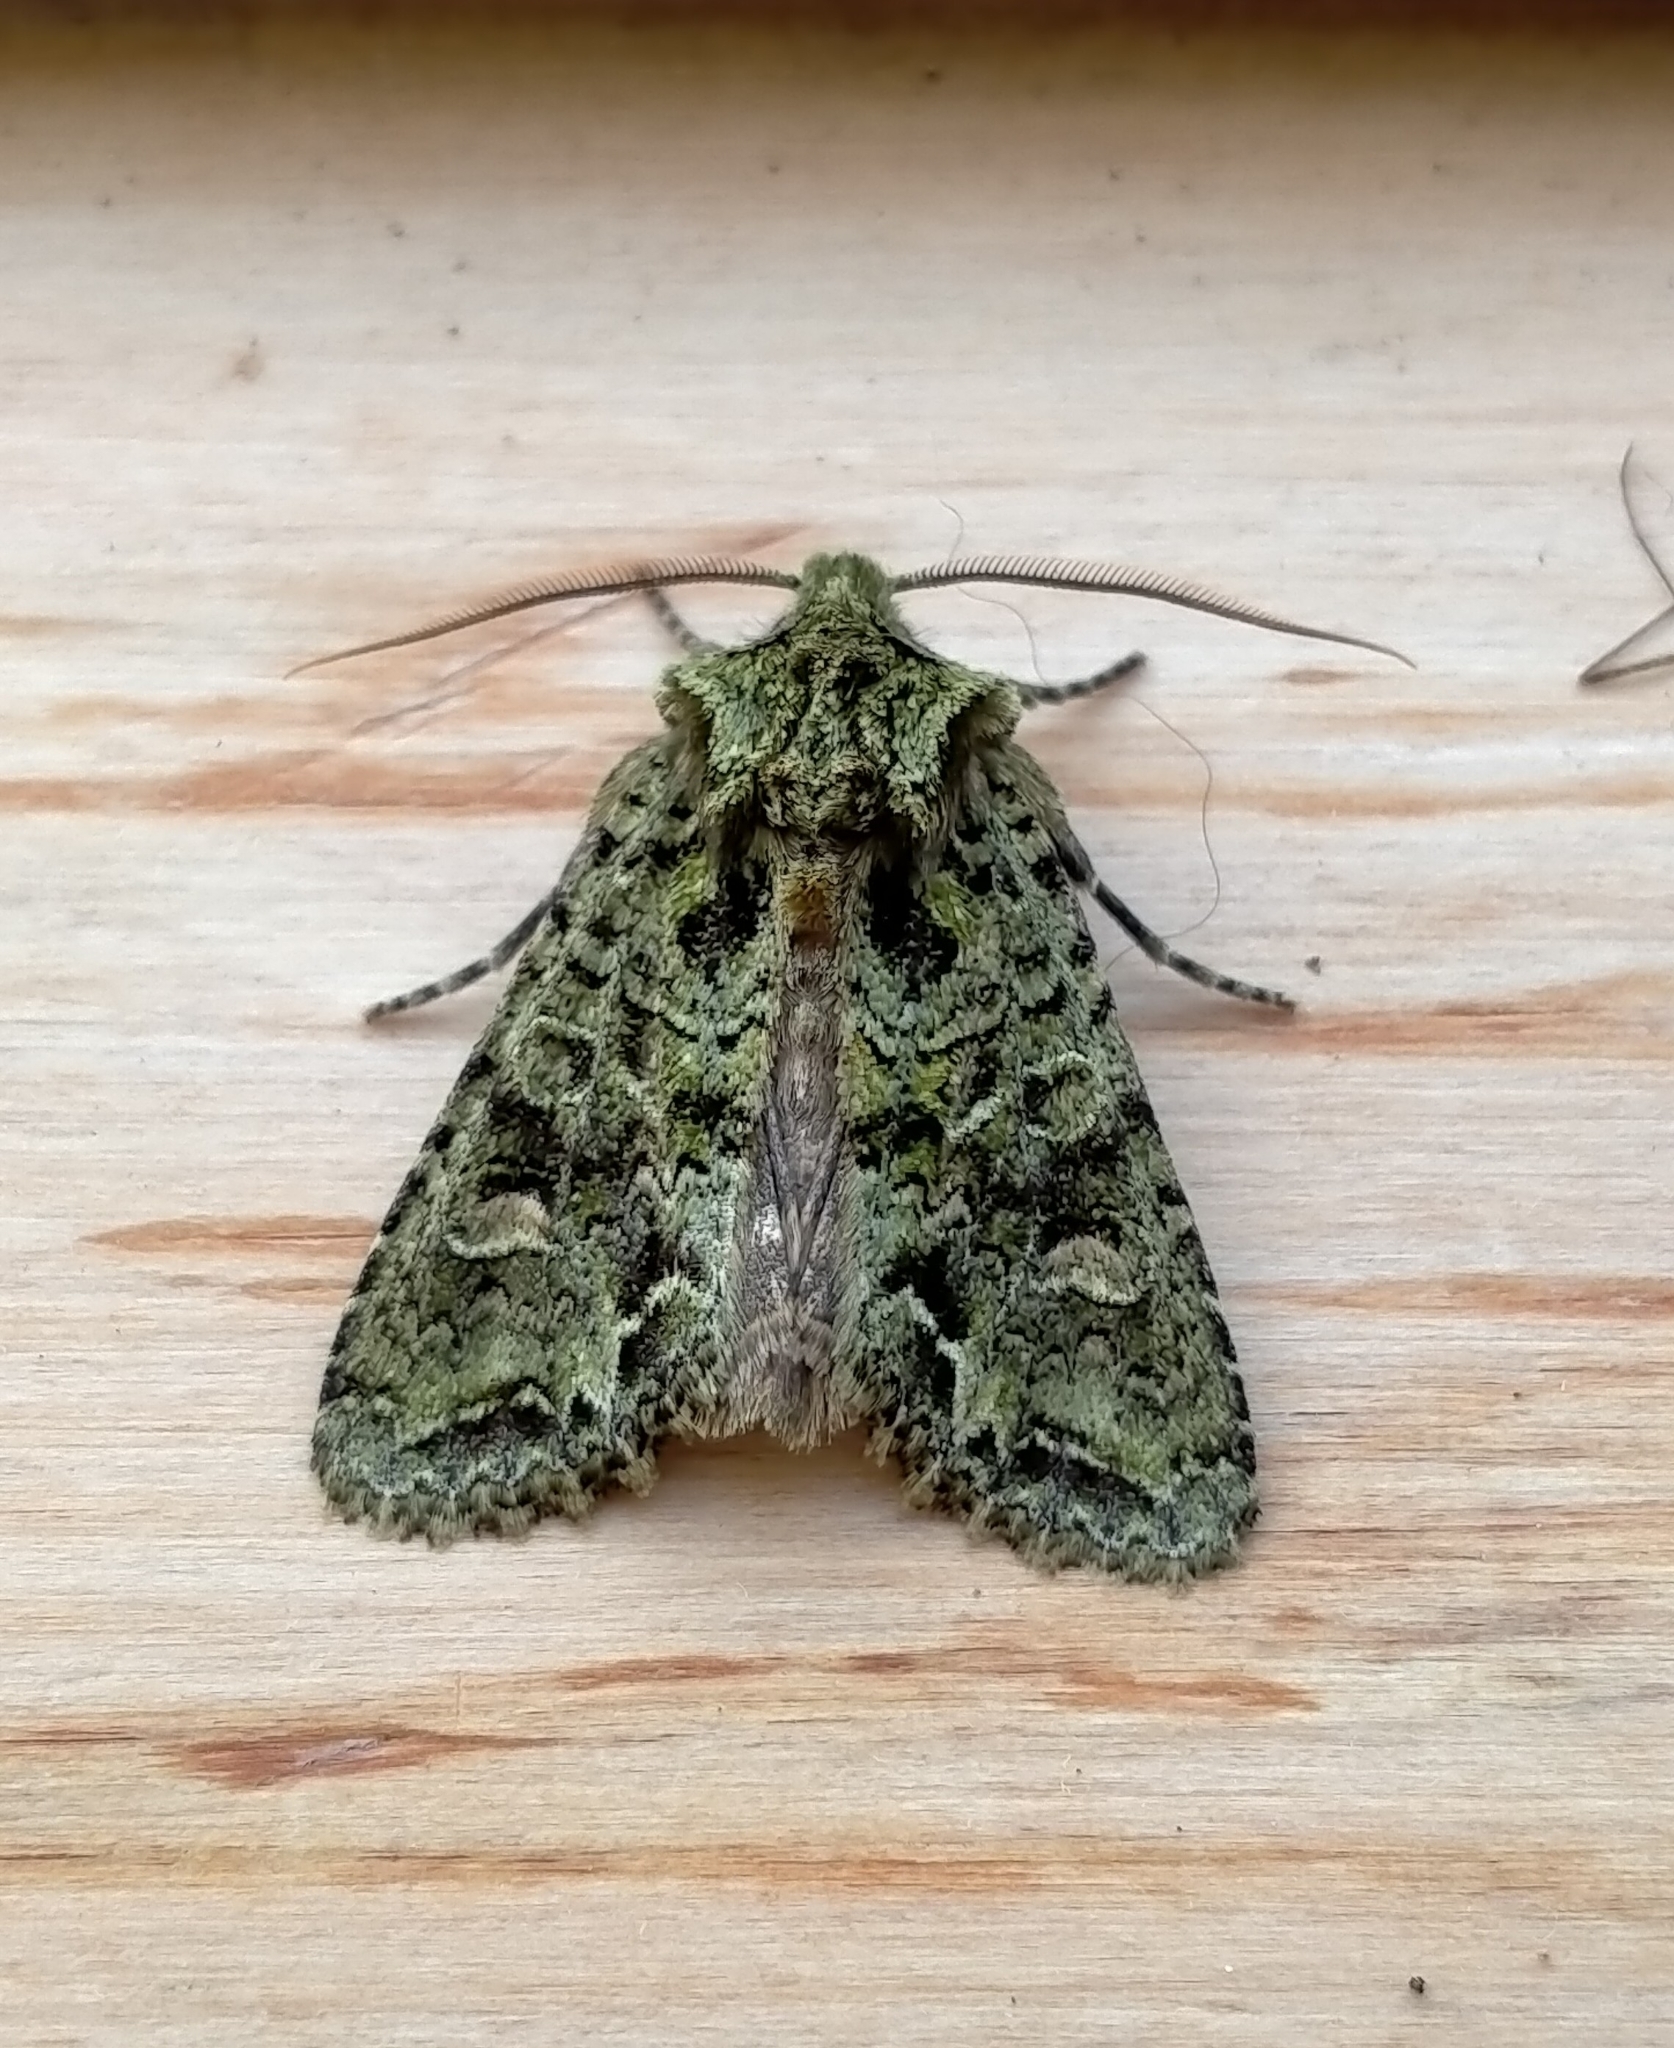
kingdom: Animalia
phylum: Arthropoda
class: Insecta
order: Lepidoptera
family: Noctuidae
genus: Ichneutica
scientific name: Ichneutica
